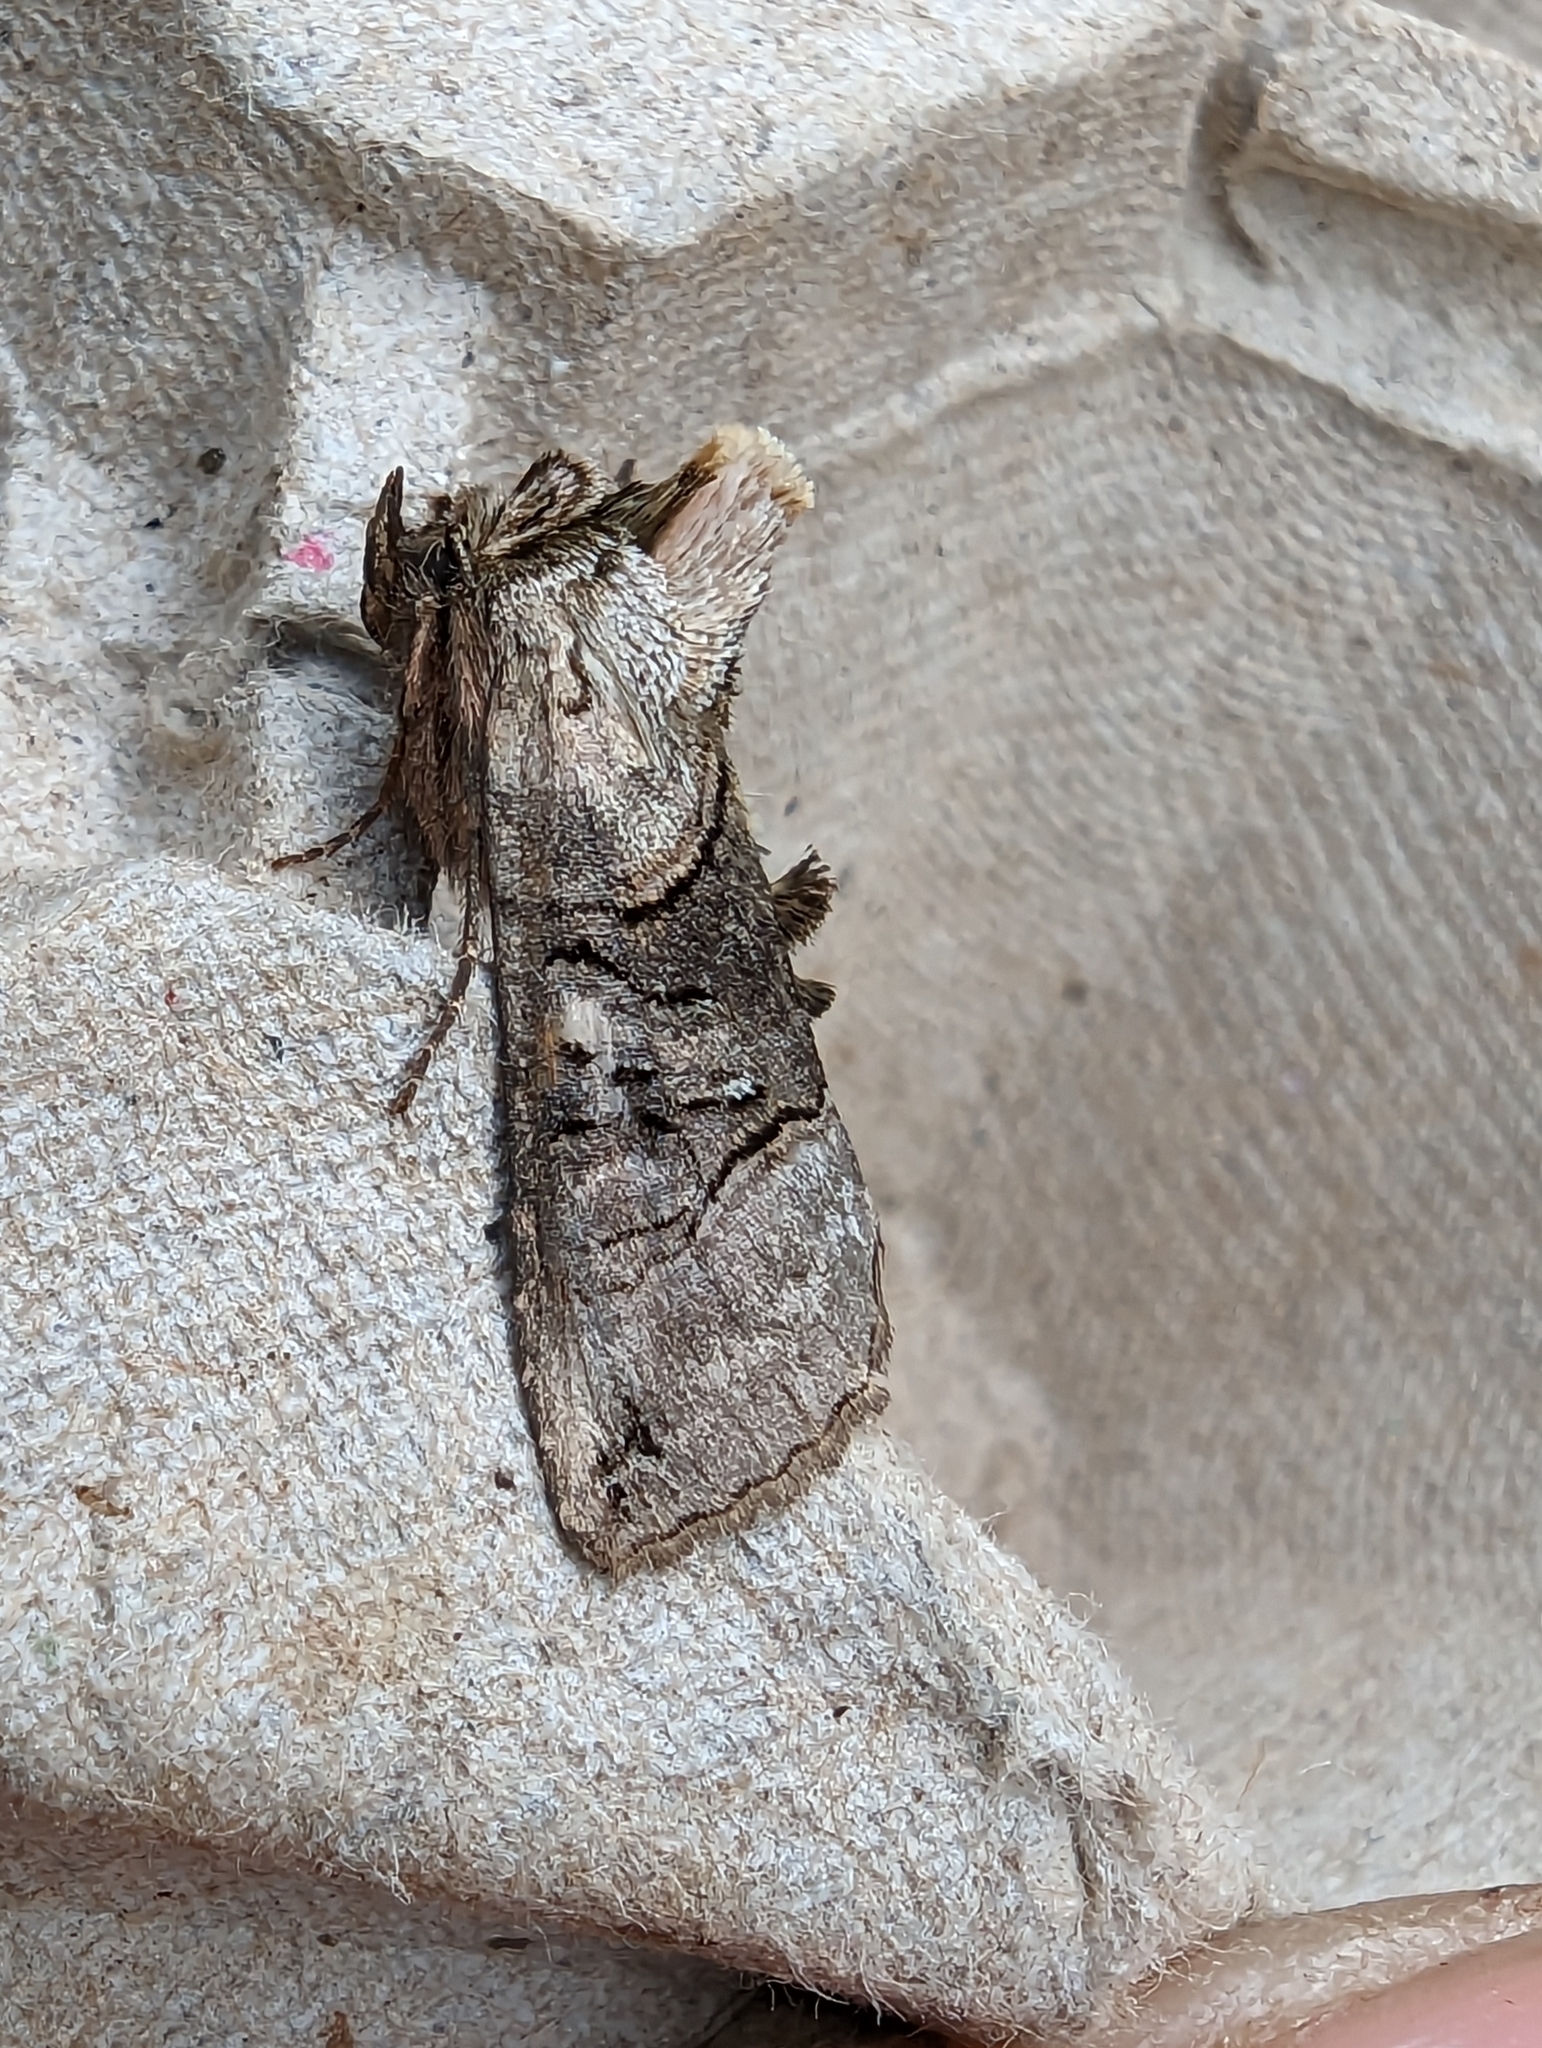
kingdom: Animalia
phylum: Arthropoda
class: Insecta
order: Lepidoptera
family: Noctuidae
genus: Abrostola
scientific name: Abrostola tripartita
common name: Spectacle
